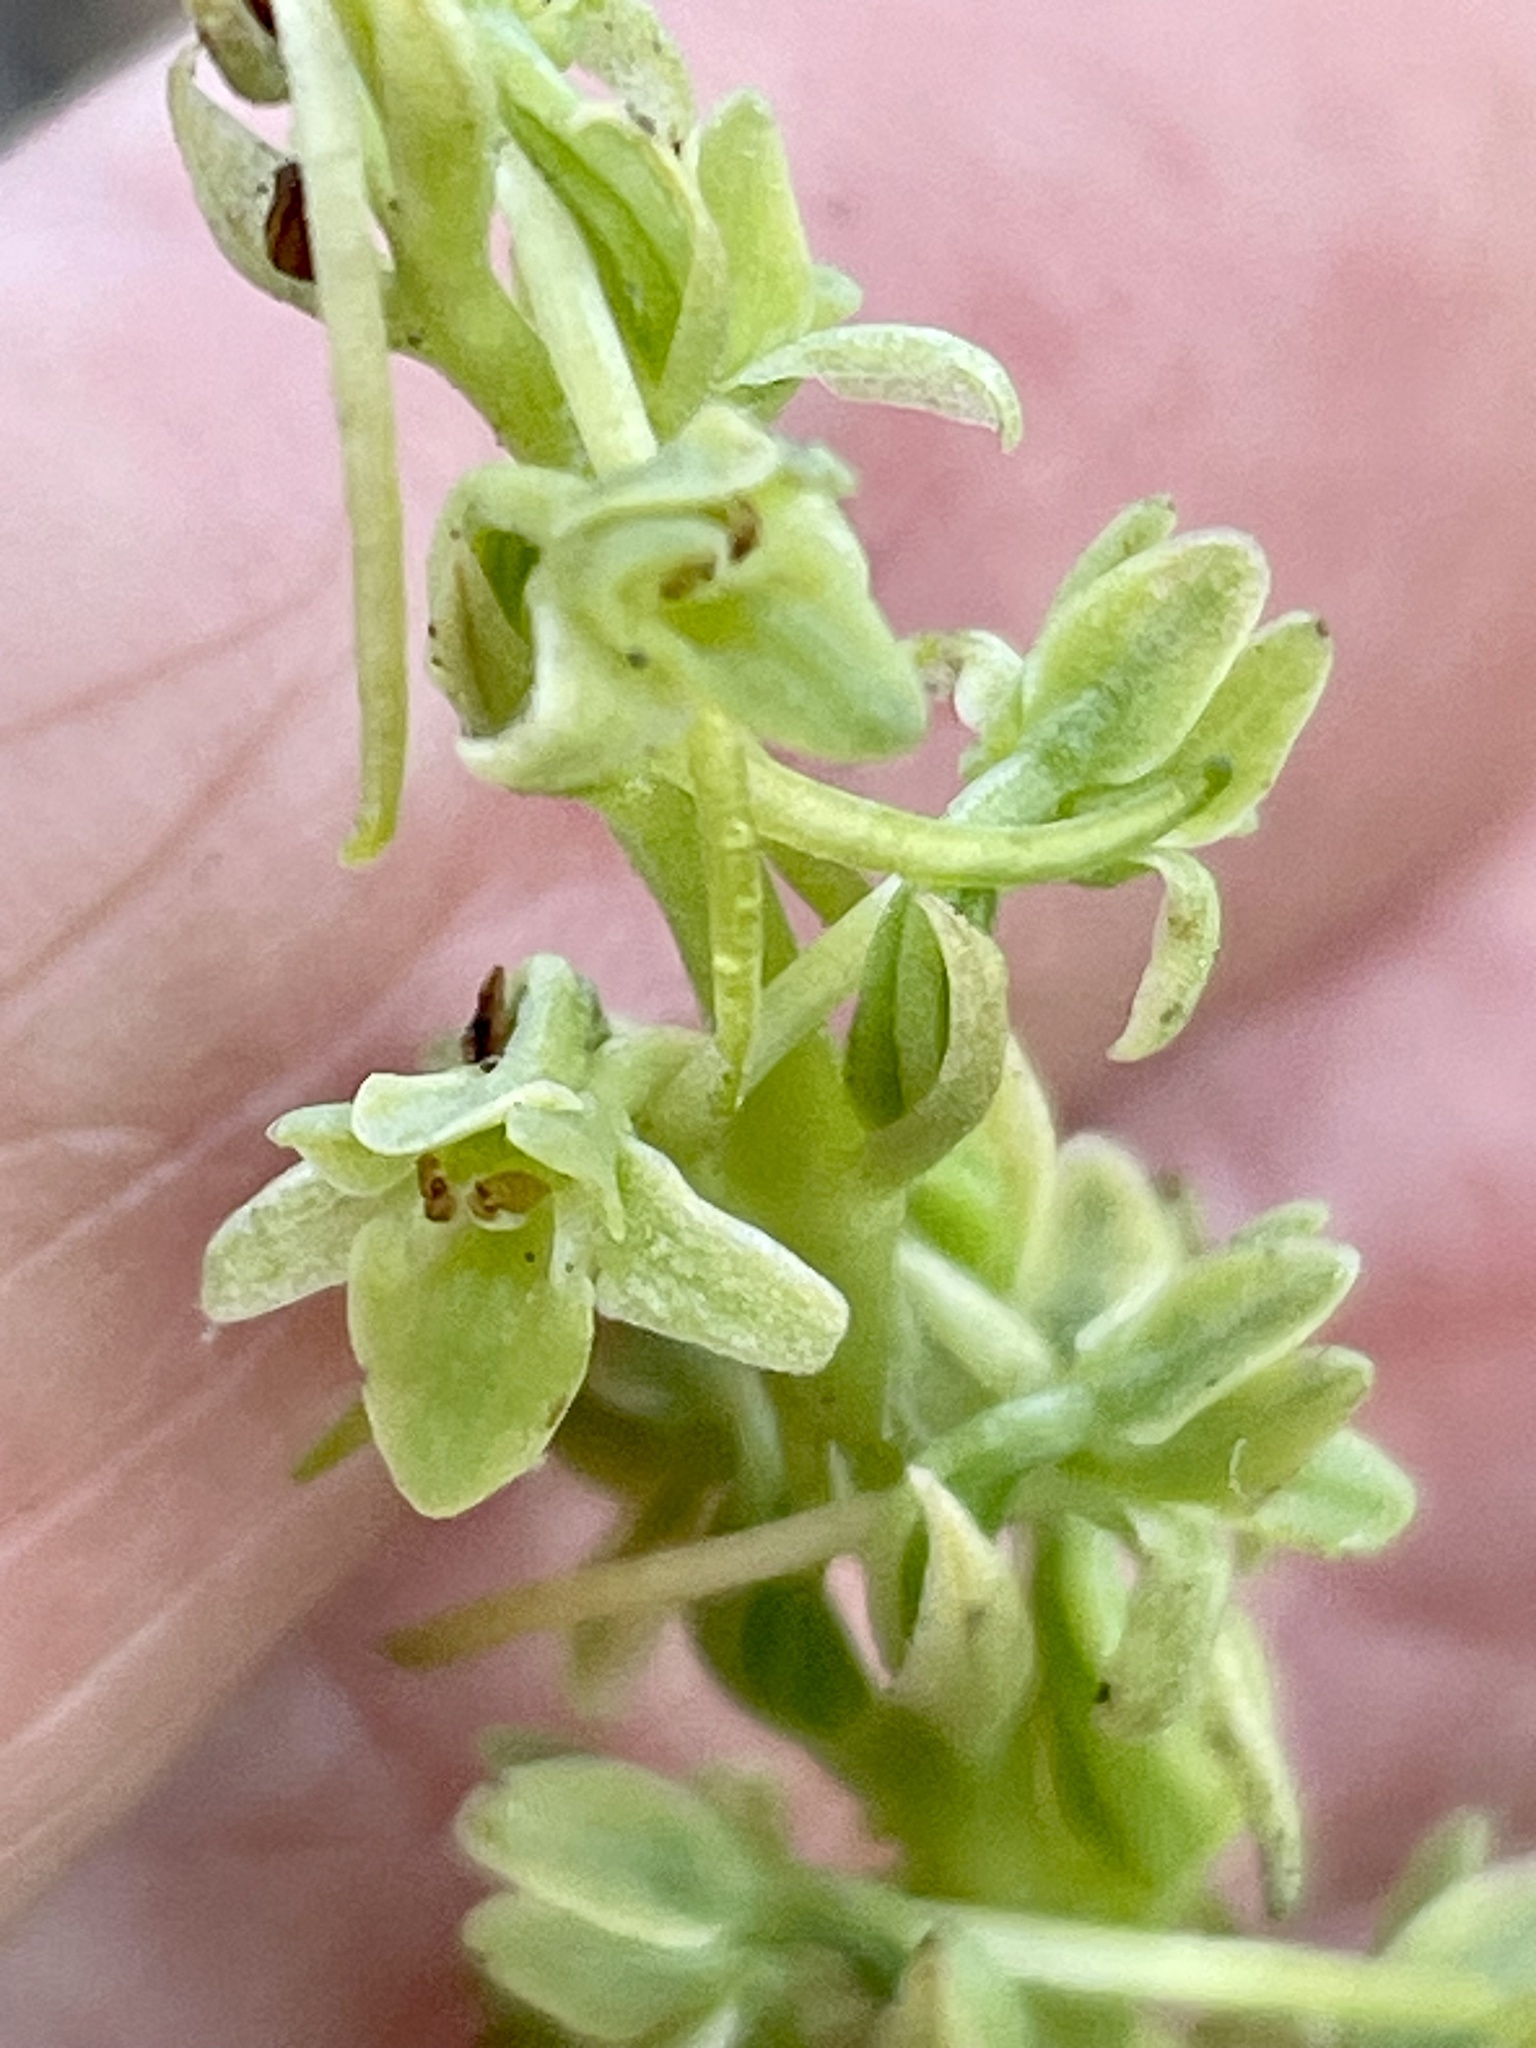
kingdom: Plantae
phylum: Tracheophyta
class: Liliopsida
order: Asparagales
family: Orchidaceae
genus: Platanthera
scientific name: Platanthera michaelii
